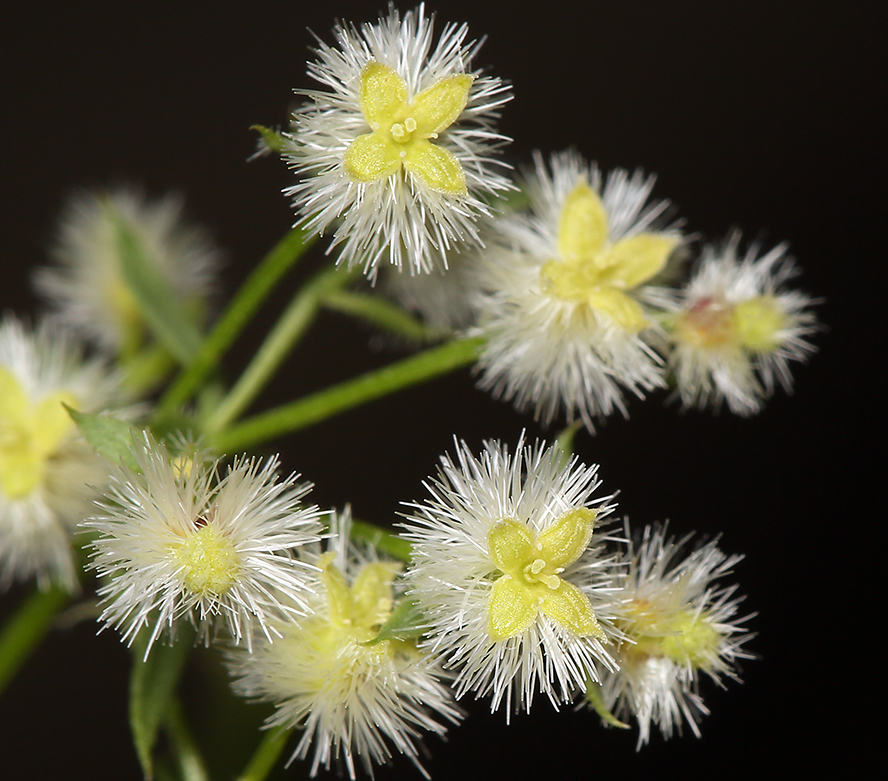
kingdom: Plantae
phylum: Tracheophyta
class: Magnoliopsida
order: Gentianales
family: Rubiaceae
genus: Galium
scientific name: Galium matthewsii
